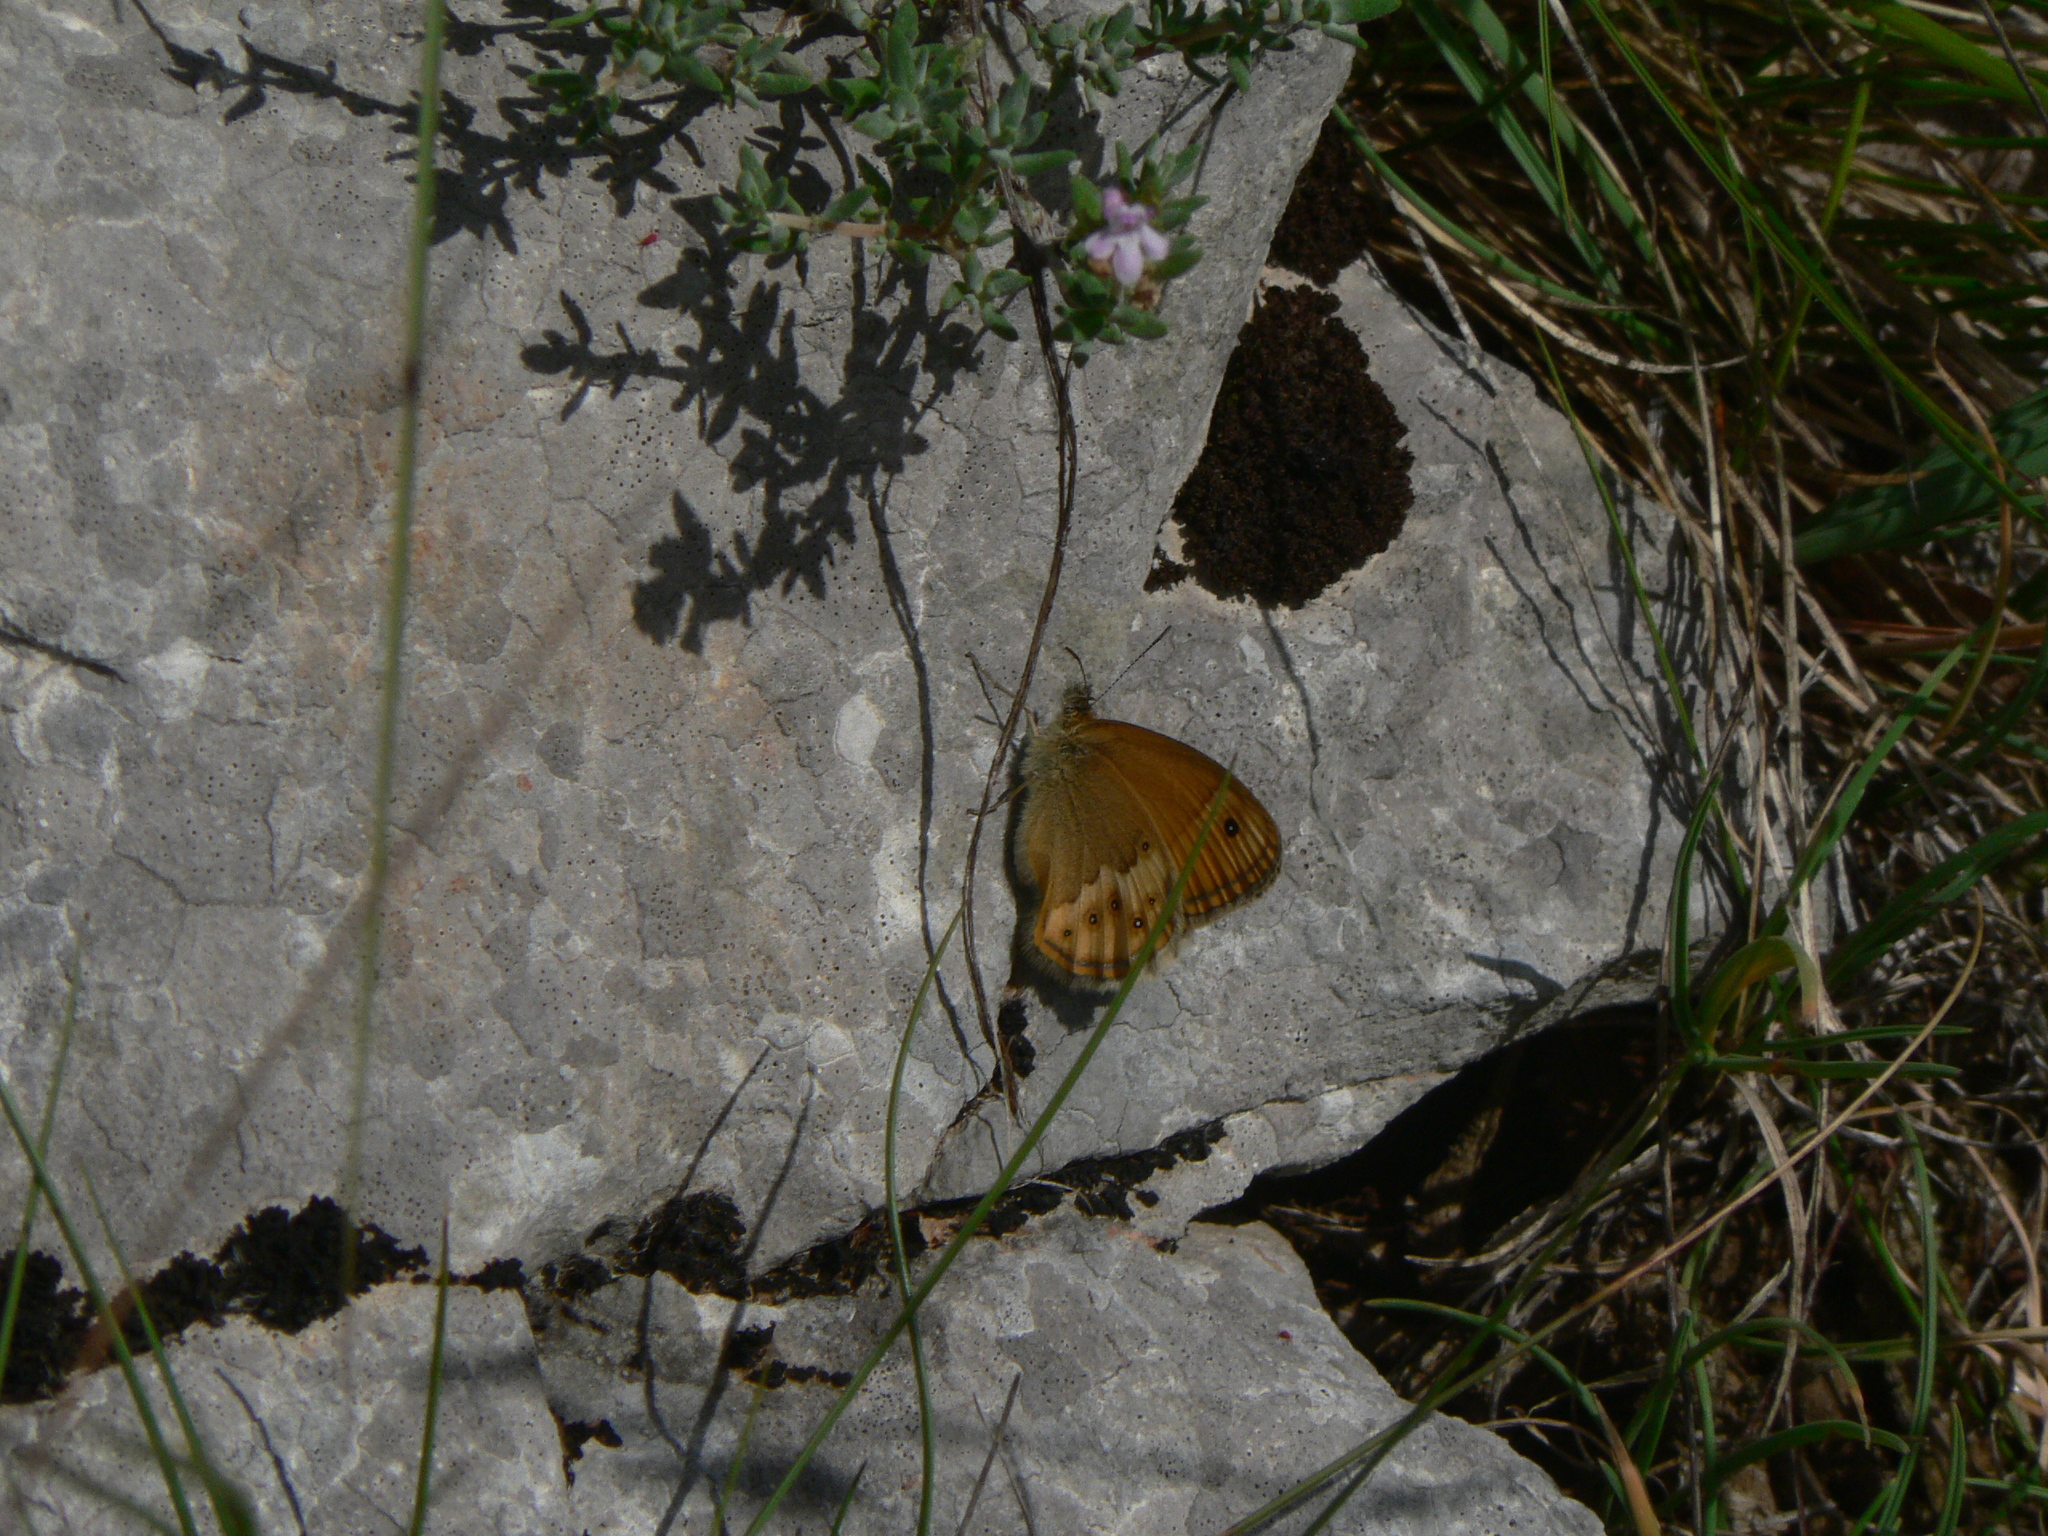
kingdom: Animalia
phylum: Arthropoda
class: Insecta
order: Lepidoptera
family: Nymphalidae
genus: Coenonympha
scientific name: Coenonympha dorus
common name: Dusky heath
